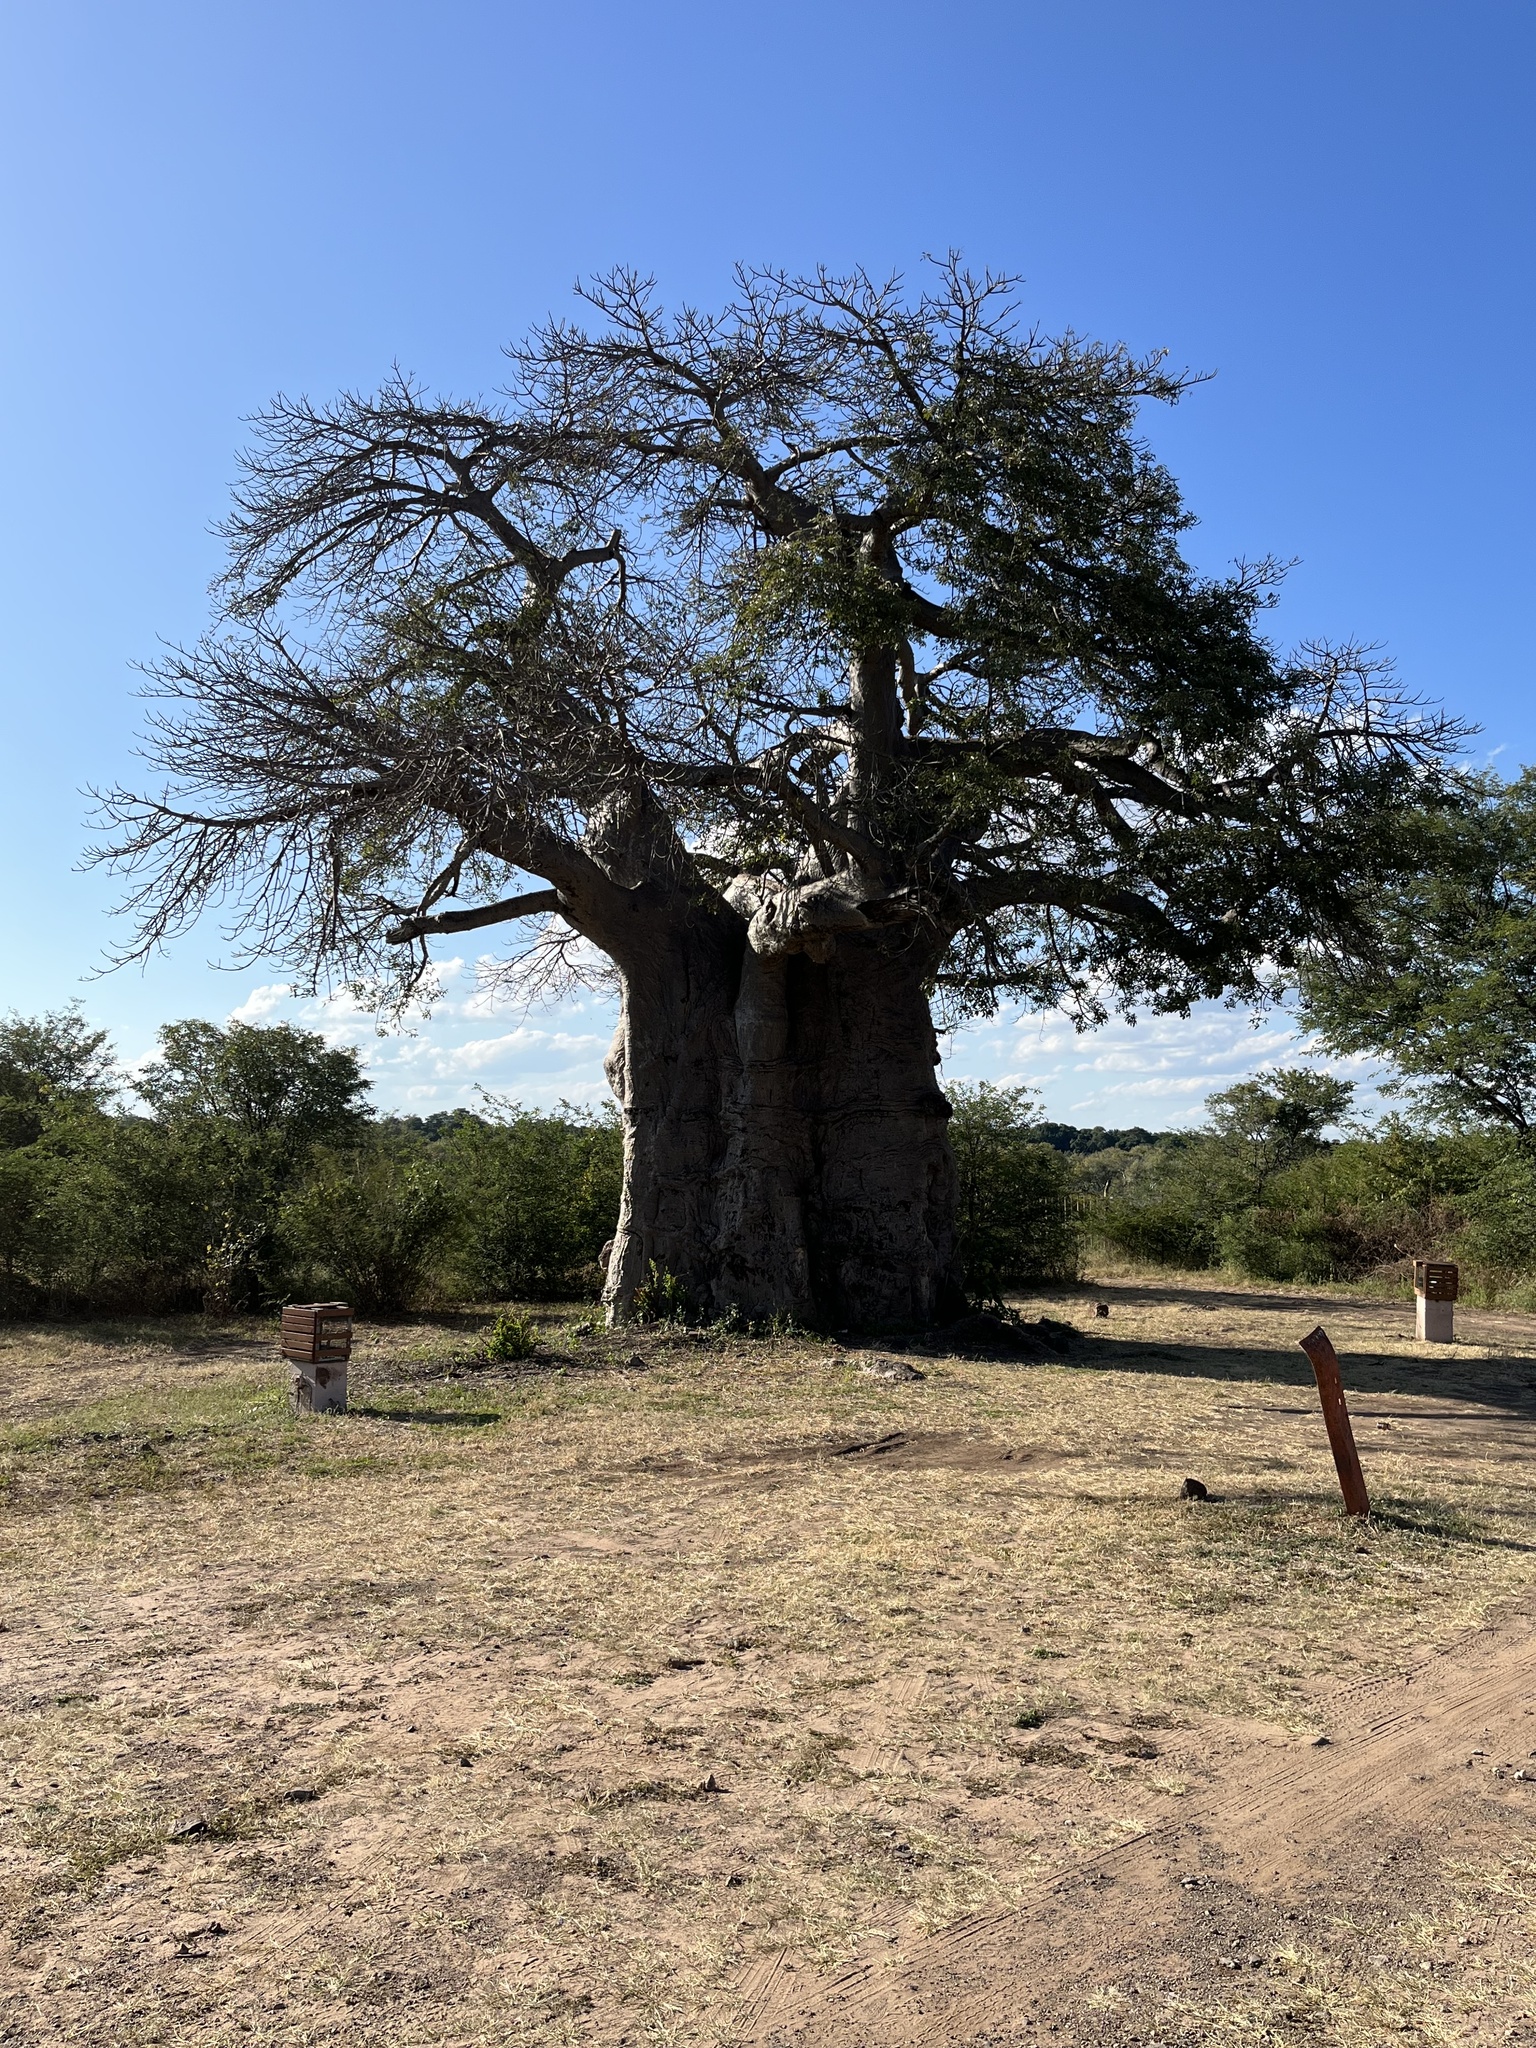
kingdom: Plantae
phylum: Tracheophyta
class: Magnoliopsida
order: Malvales
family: Malvaceae
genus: Adansonia
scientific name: Adansonia digitata
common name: Dead-rat-tree
